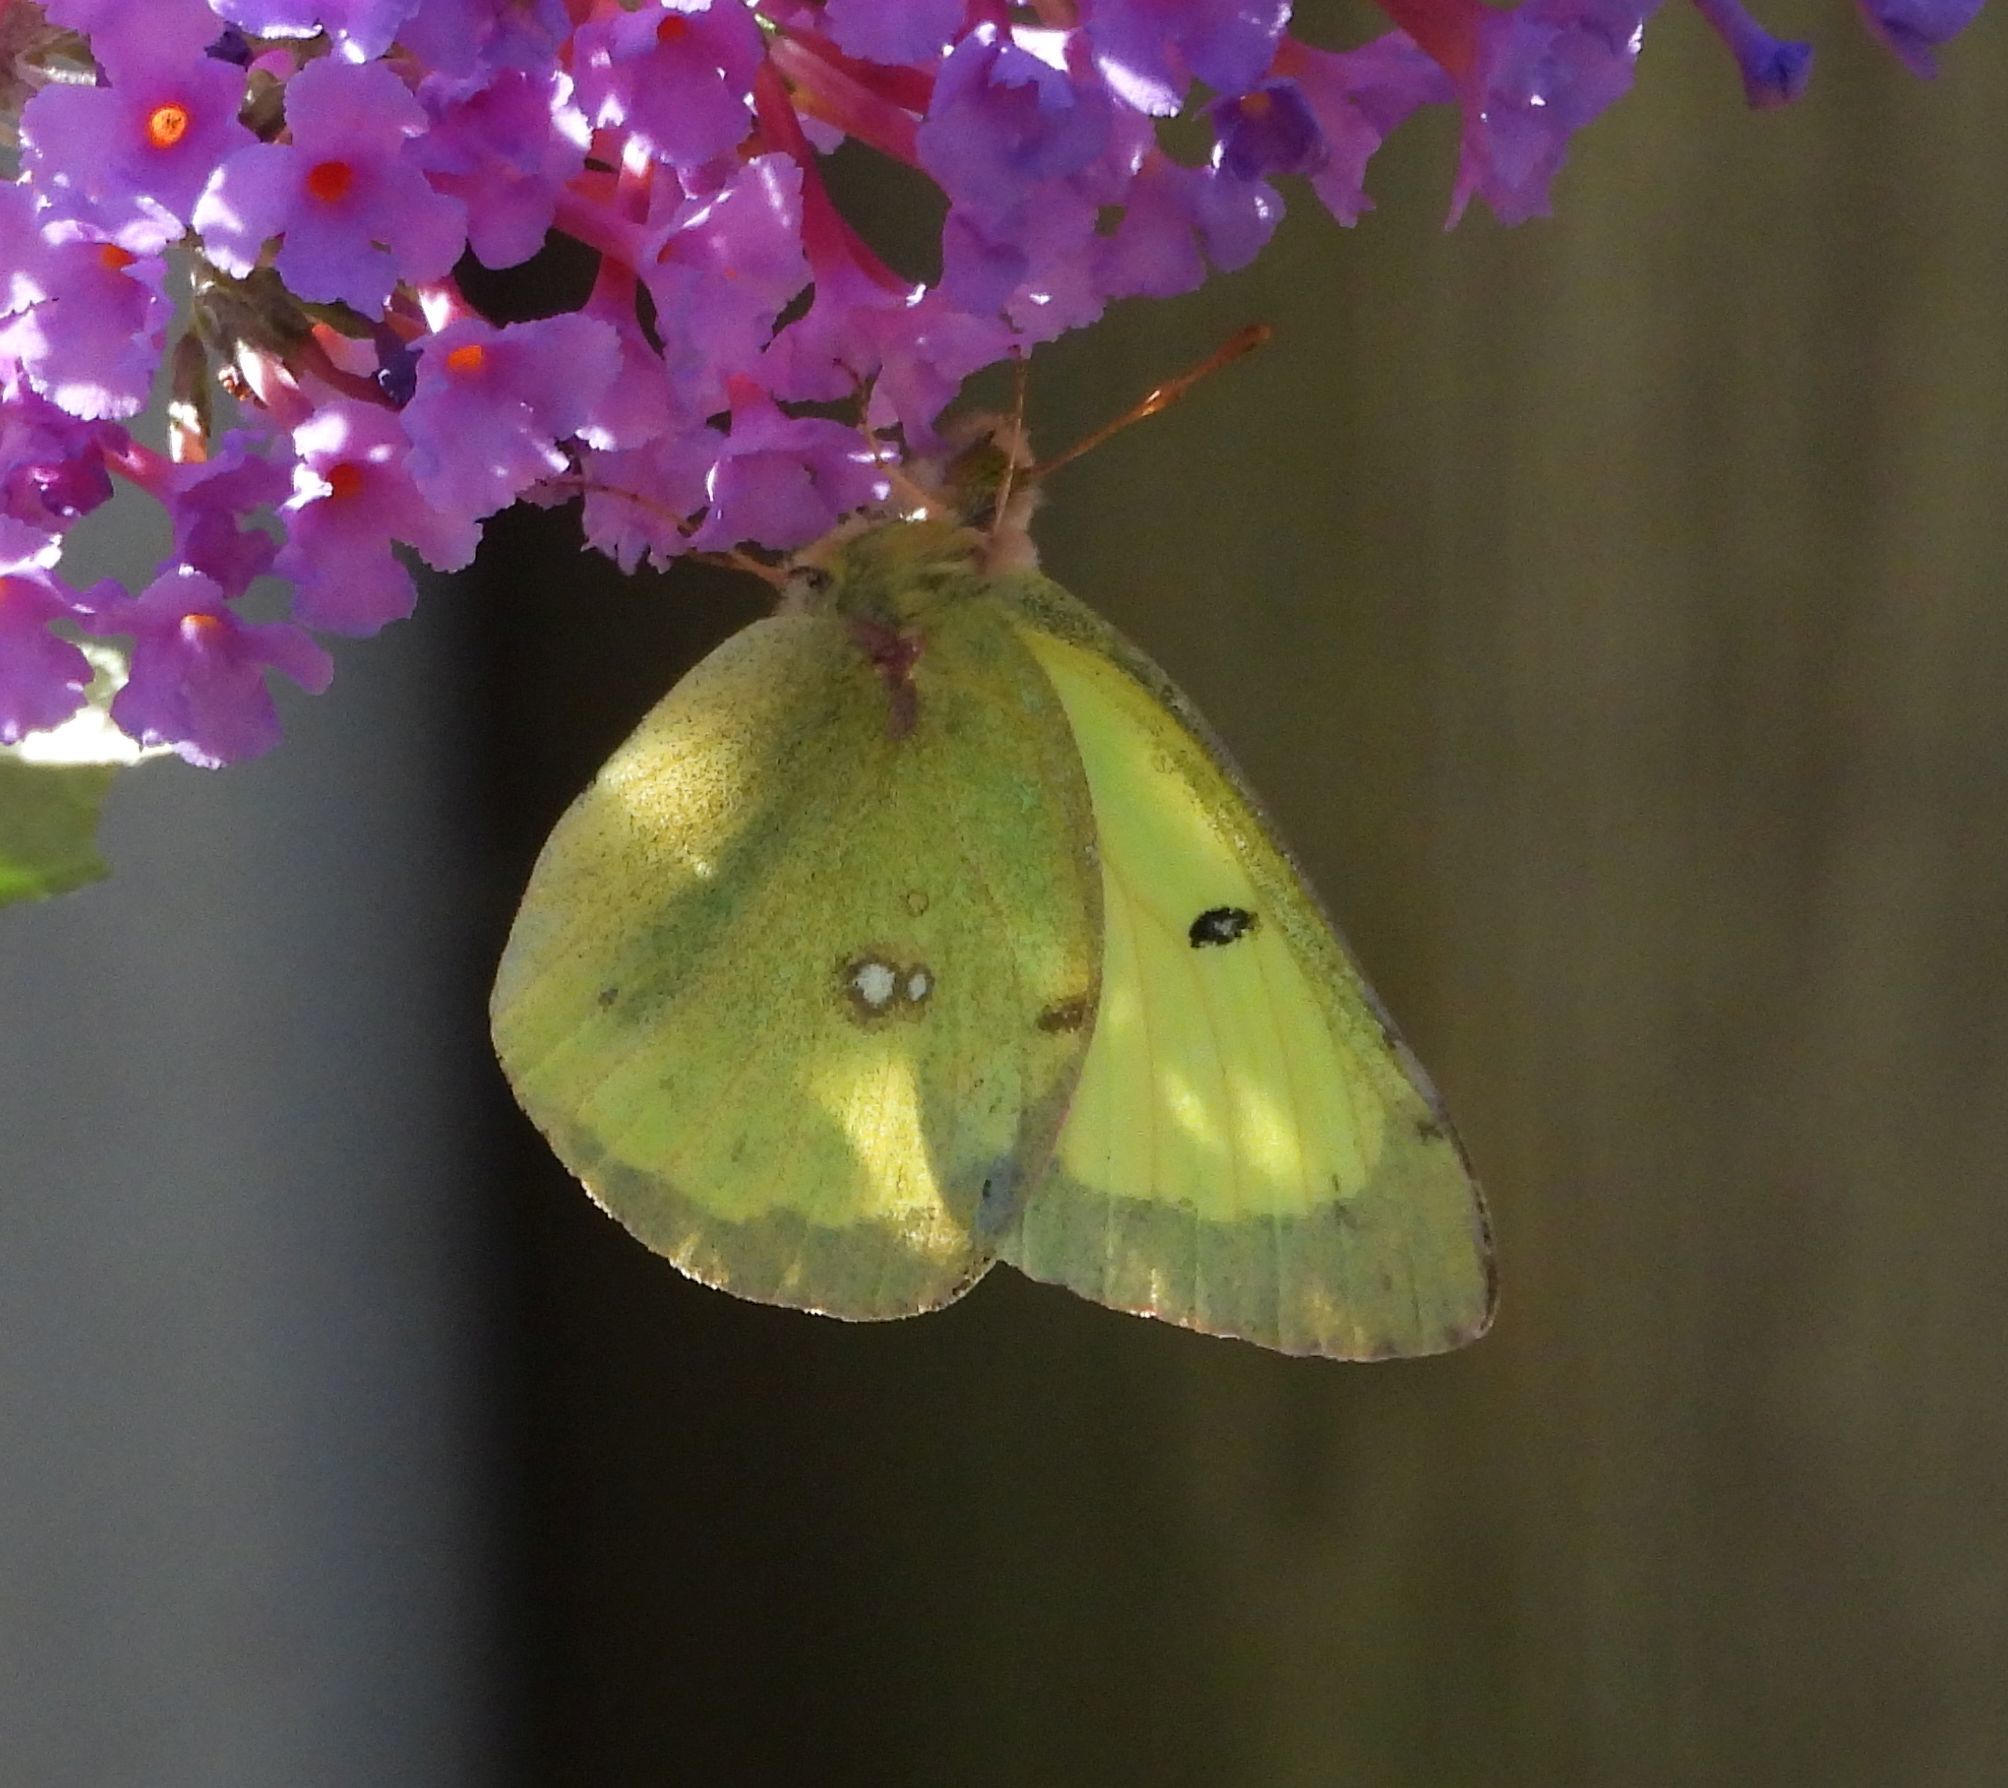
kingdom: Animalia
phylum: Arthropoda
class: Insecta
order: Lepidoptera
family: Pieridae
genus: Colias
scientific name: Colias philodice
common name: Clouded sulphur
